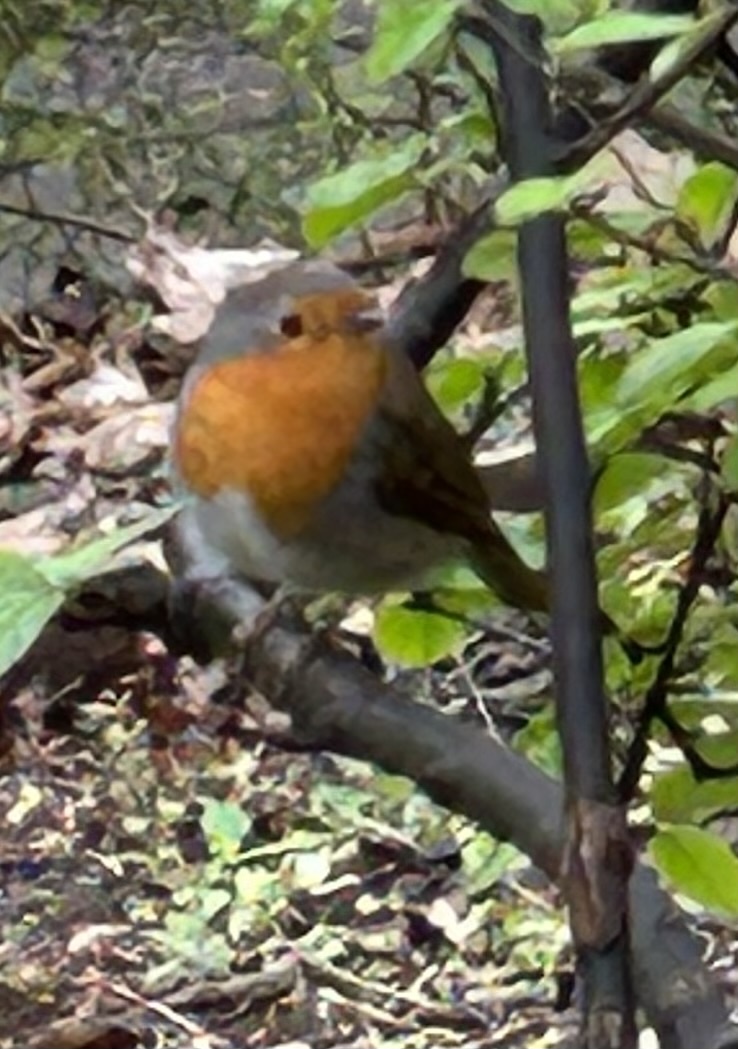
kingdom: Animalia
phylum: Chordata
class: Aves
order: Passeriformes
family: Muscicapidae
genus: Erithacus
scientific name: Erithacus rubecula
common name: European robin
